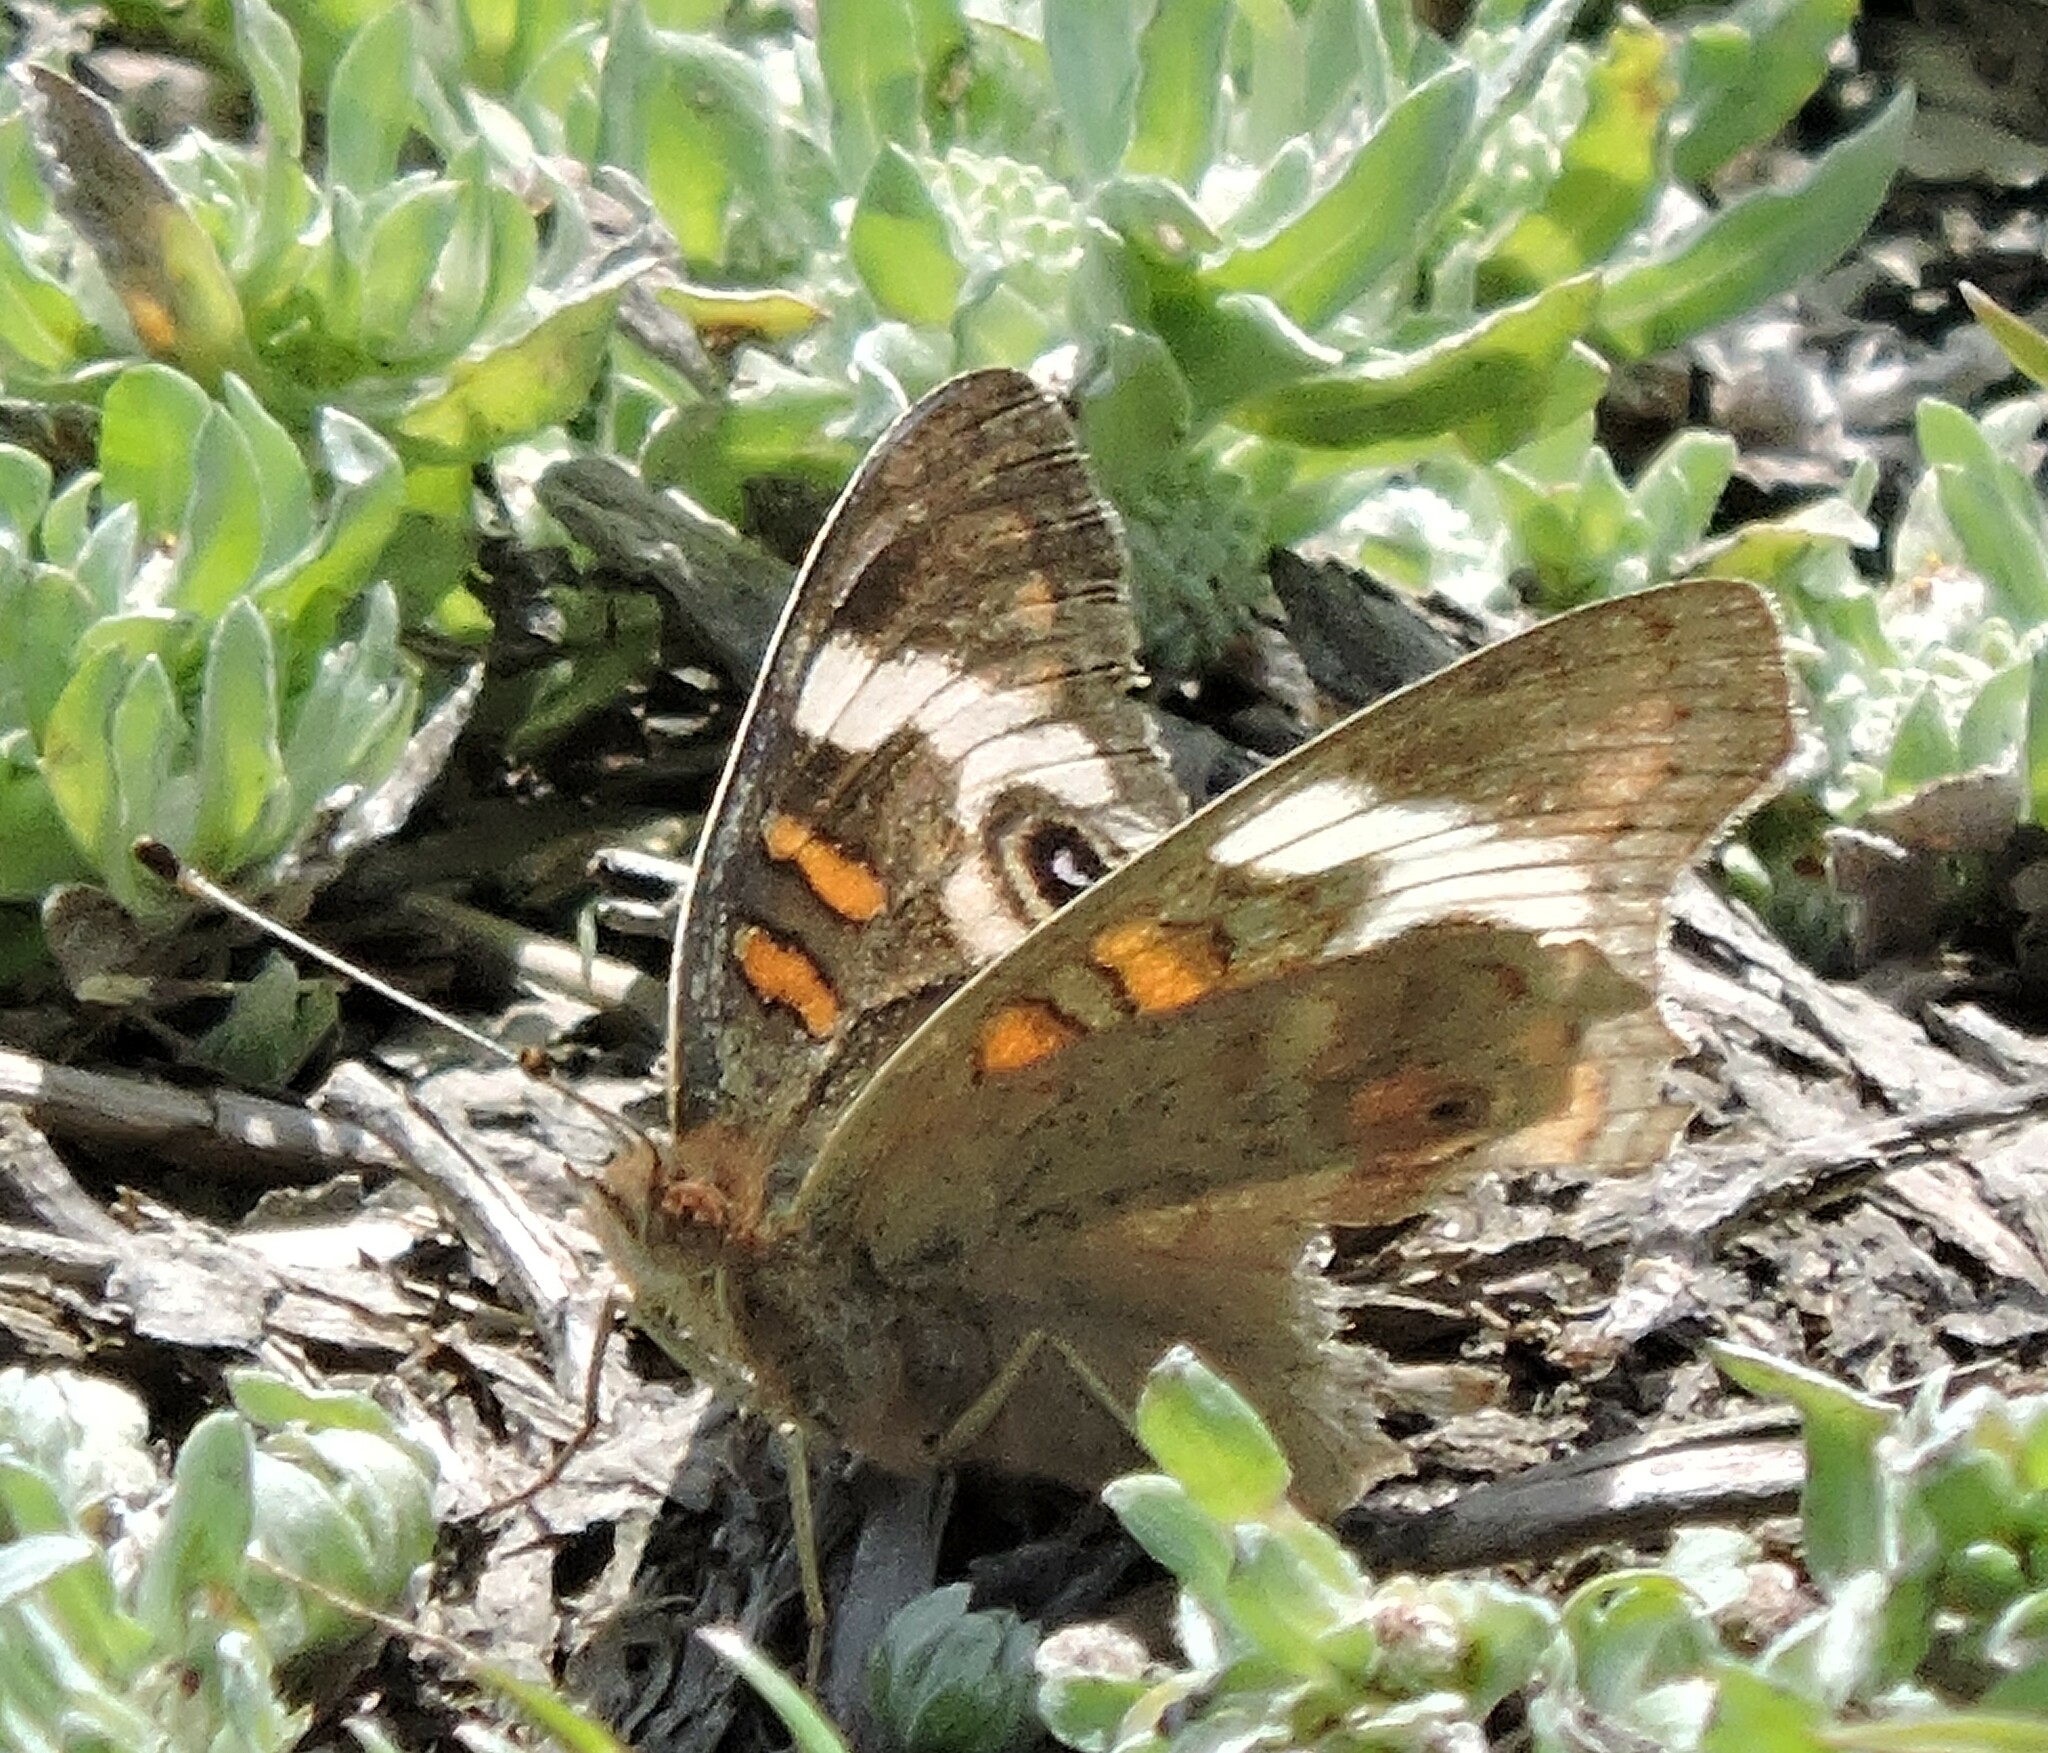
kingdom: Animalia
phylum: Arthropoda
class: Insecta
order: Lepidoptera
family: Nymphalidae
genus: Junonia
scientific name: Junonia grisea
